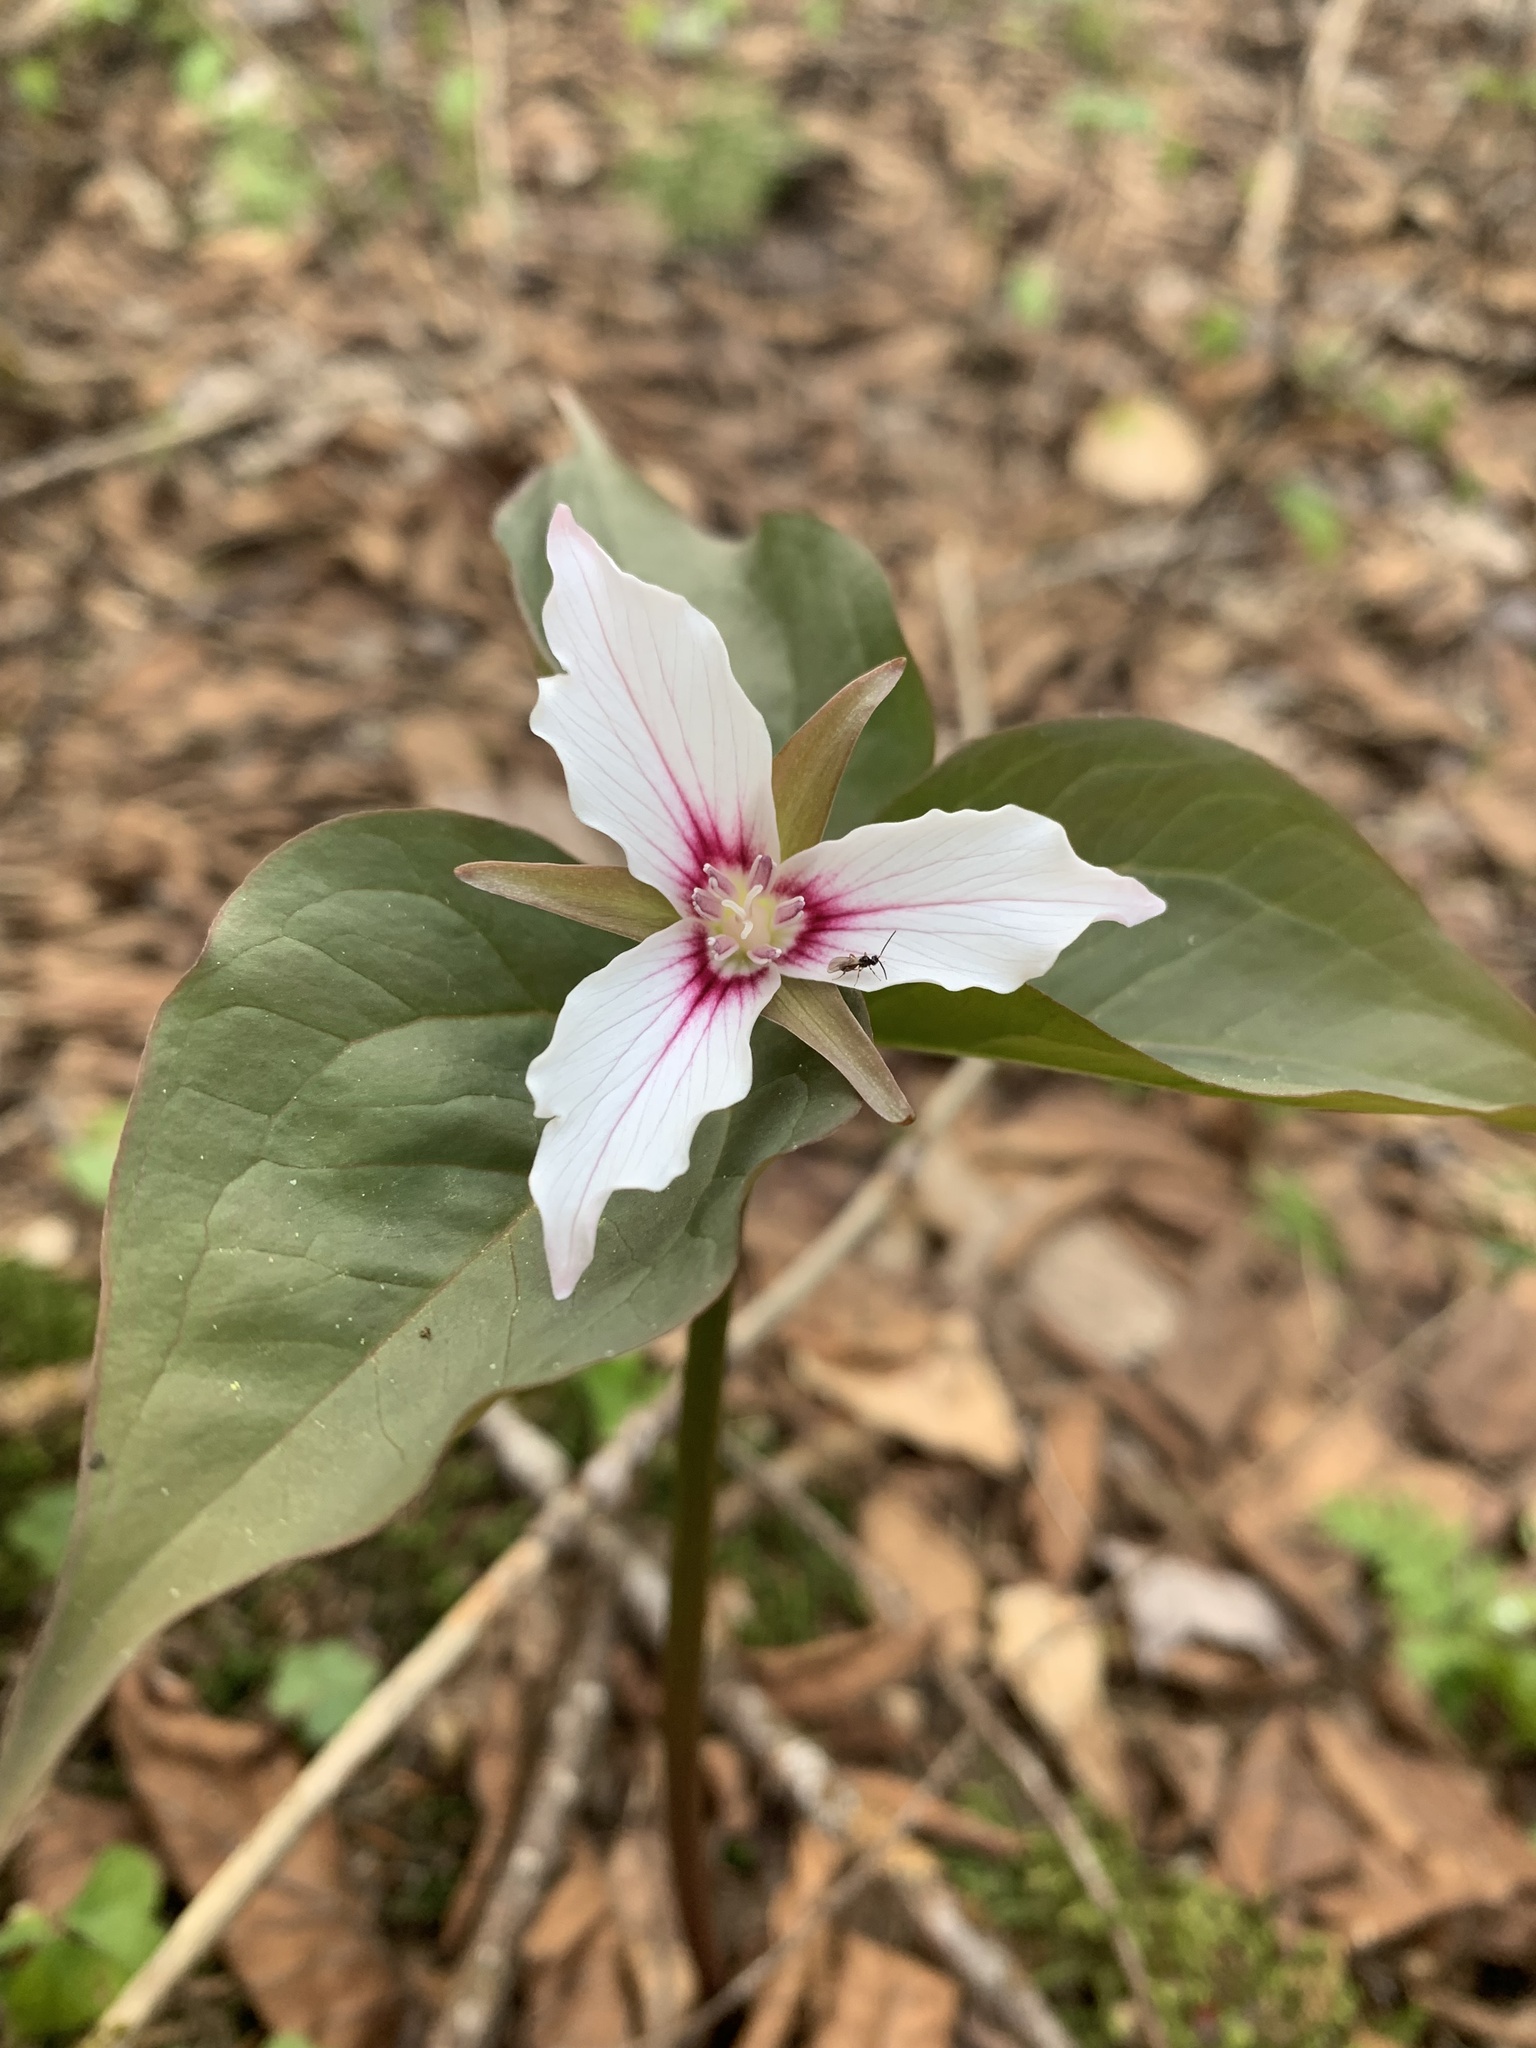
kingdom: Plantae
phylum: Tracheophyta
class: Liliopsida
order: Liliales
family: Melanthiaceae
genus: Trillium
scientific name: Trillium undulatum
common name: Paint trillium
